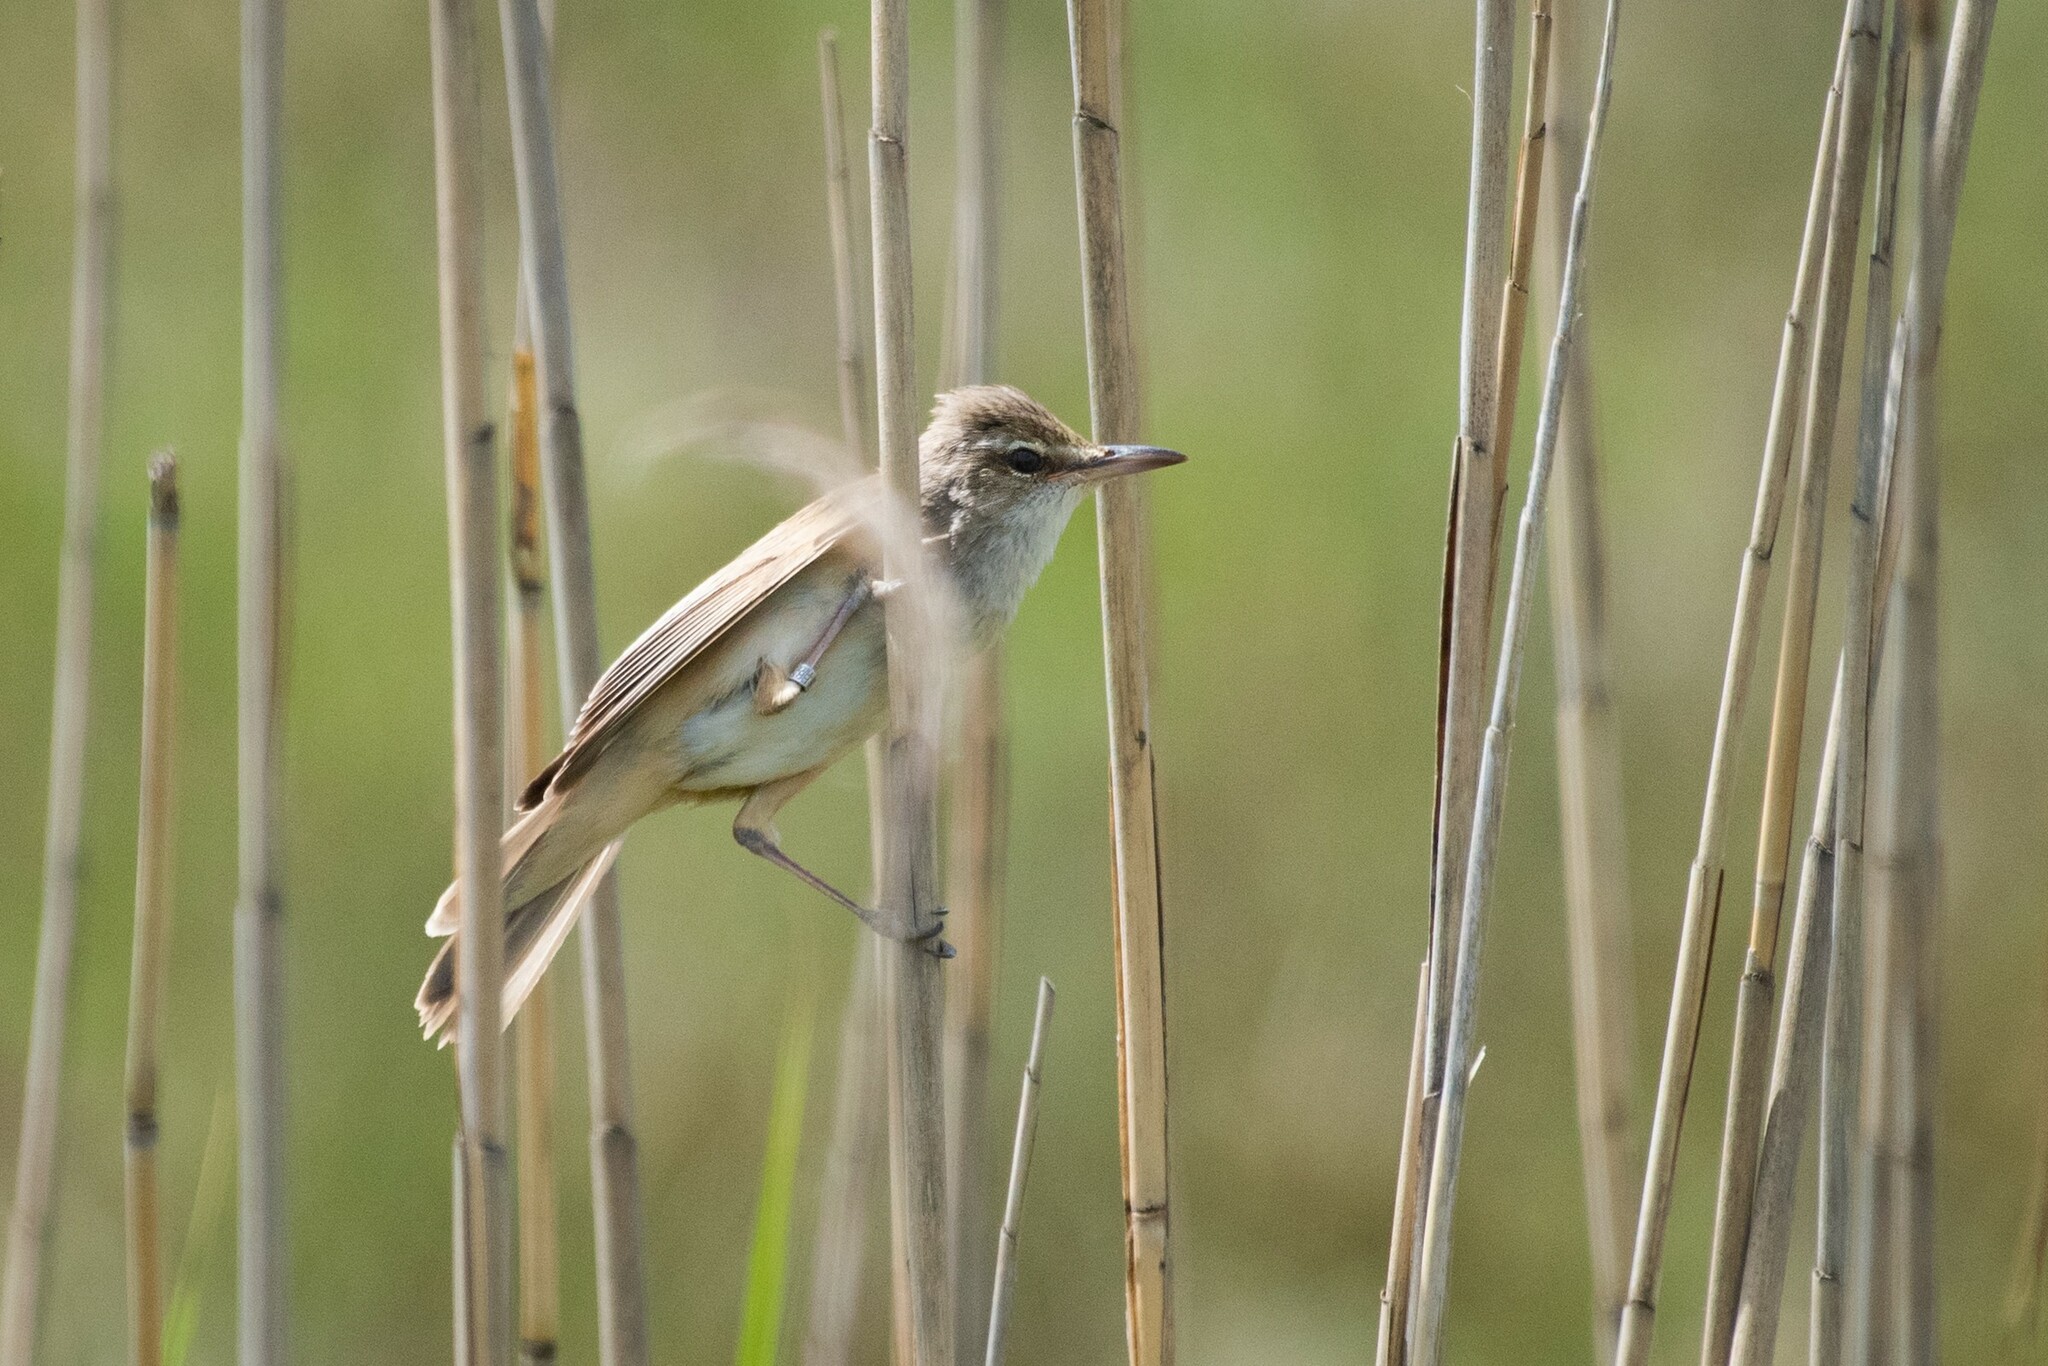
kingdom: Animalia
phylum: Chordata
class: Aves
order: Passeriformes
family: Acrocephalidae
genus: Acrocephalus
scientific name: Acrocephalus arundinaceus
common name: Great reed warbler
